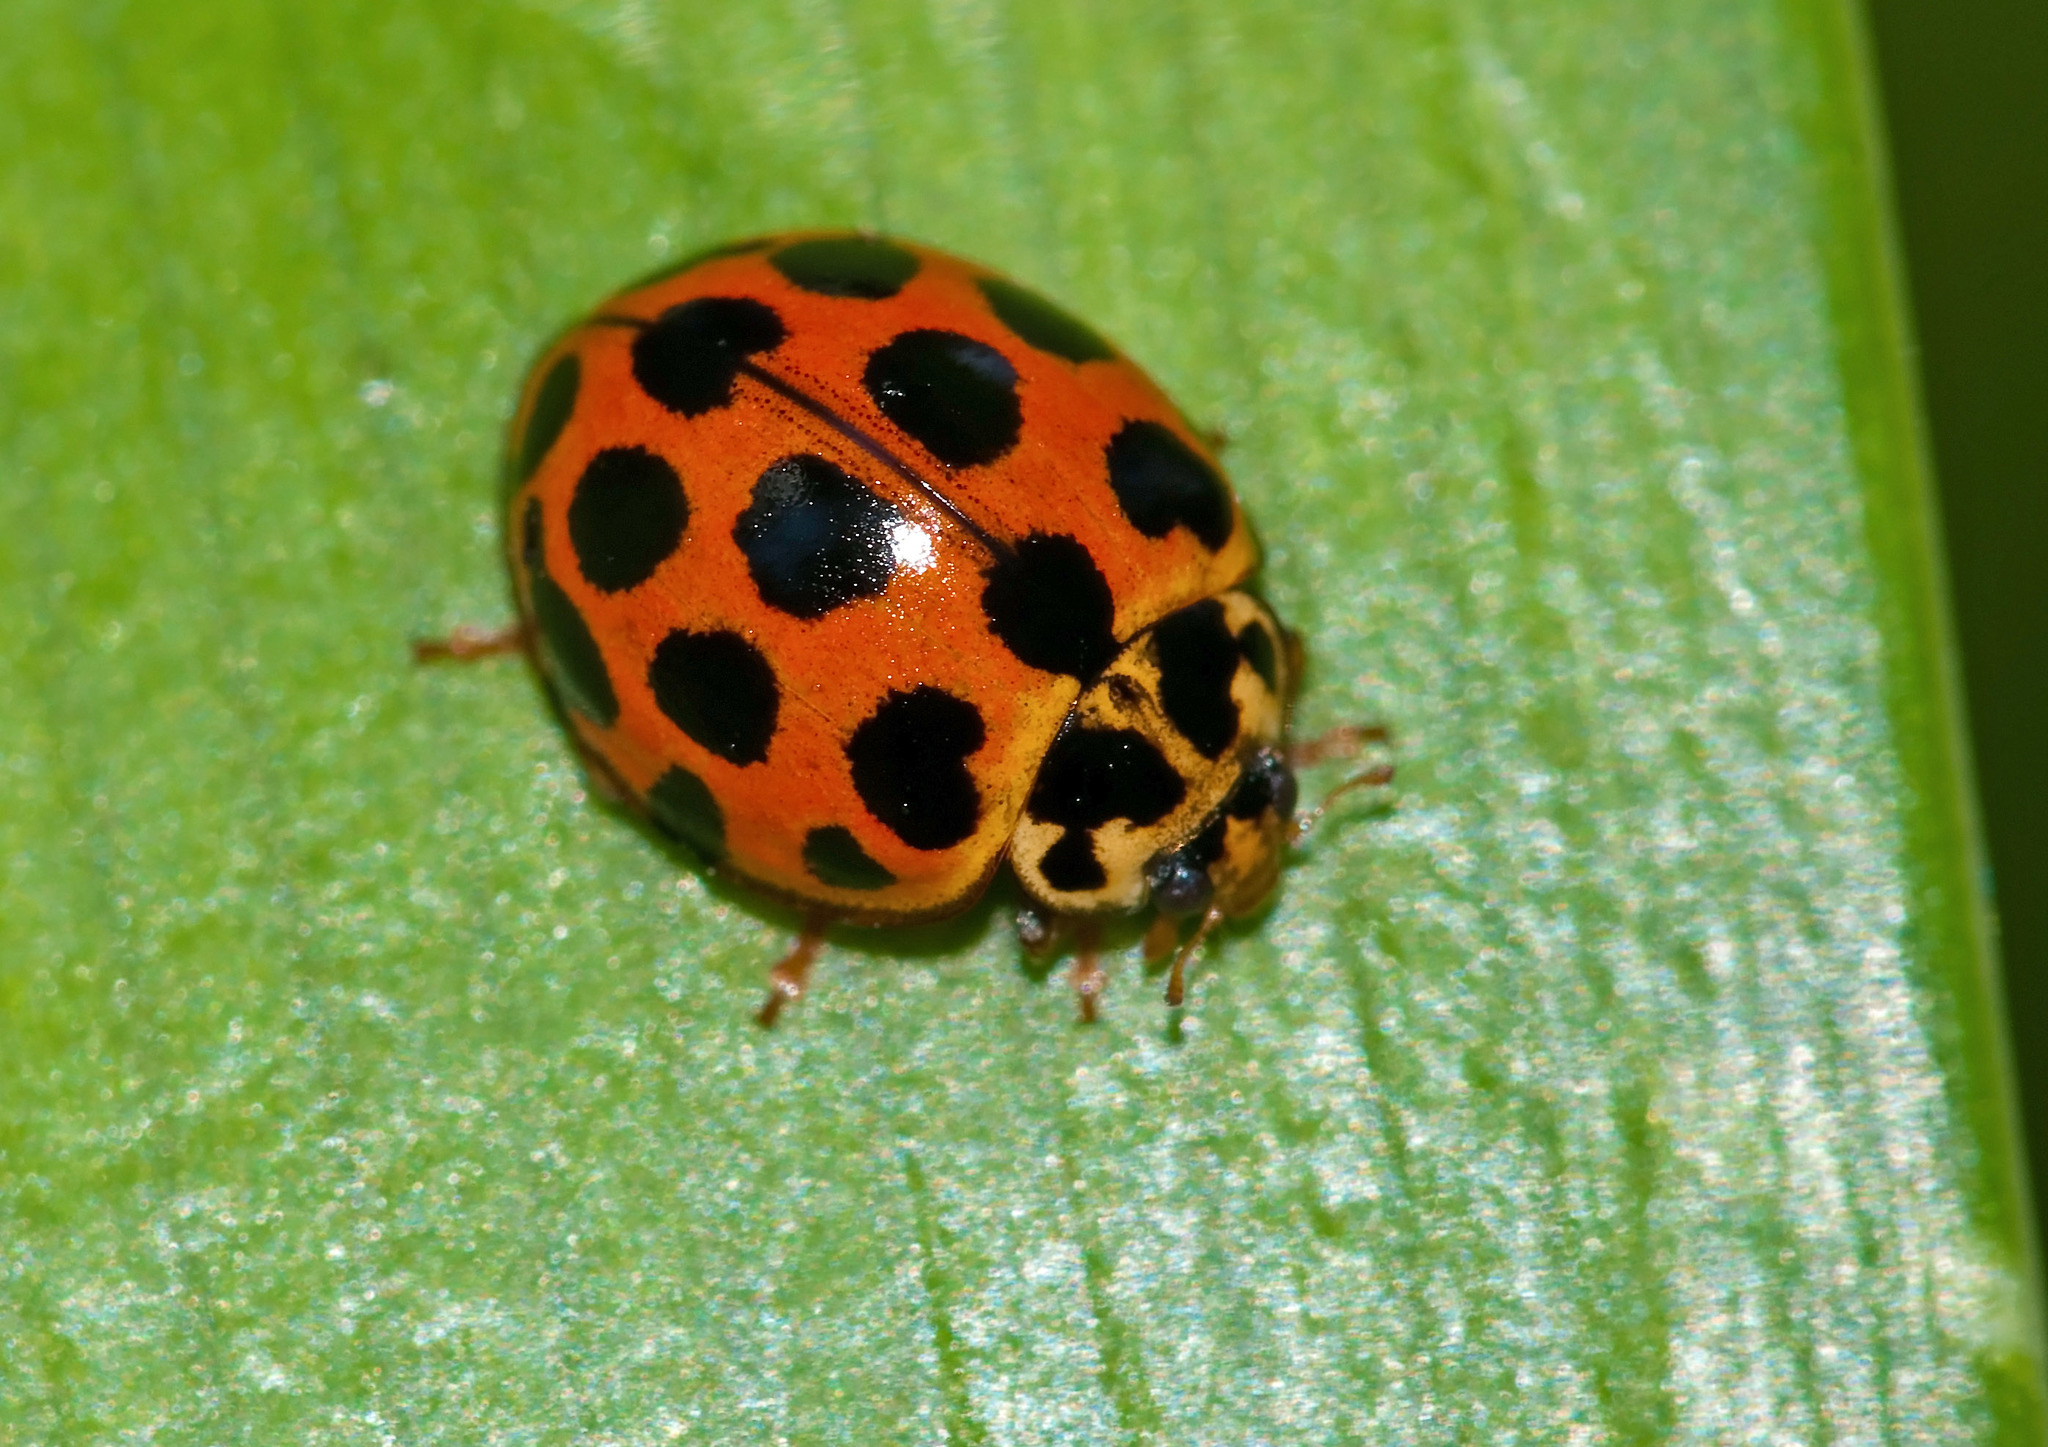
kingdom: Animalia
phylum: Arthropoda
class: Insecta
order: Coleoptera
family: Coccinellidae
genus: Harmonia
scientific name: Harmonia conformis
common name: Common spotted ladybird beetle
